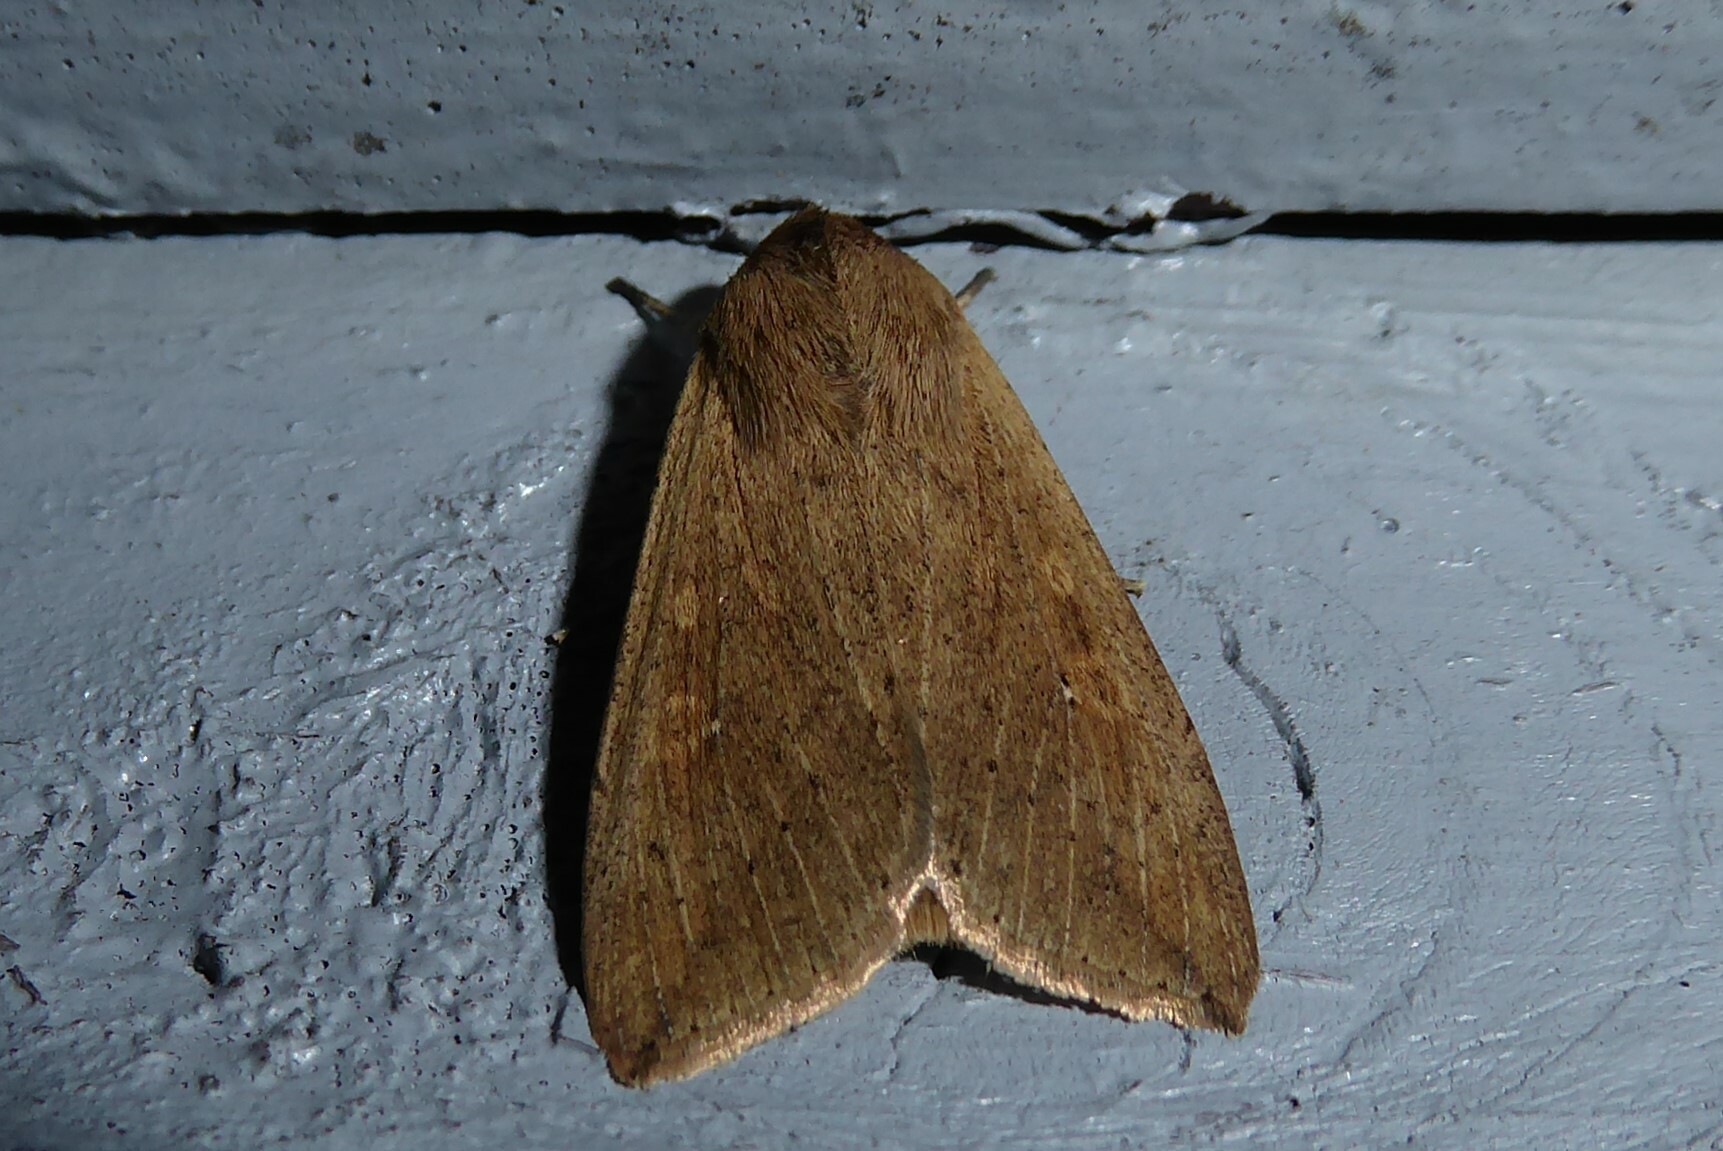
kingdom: Animalia
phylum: Arthropoda
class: Insecta
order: Lepidoptera
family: Noctuidae
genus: Mythimna
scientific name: Mythimna separata
